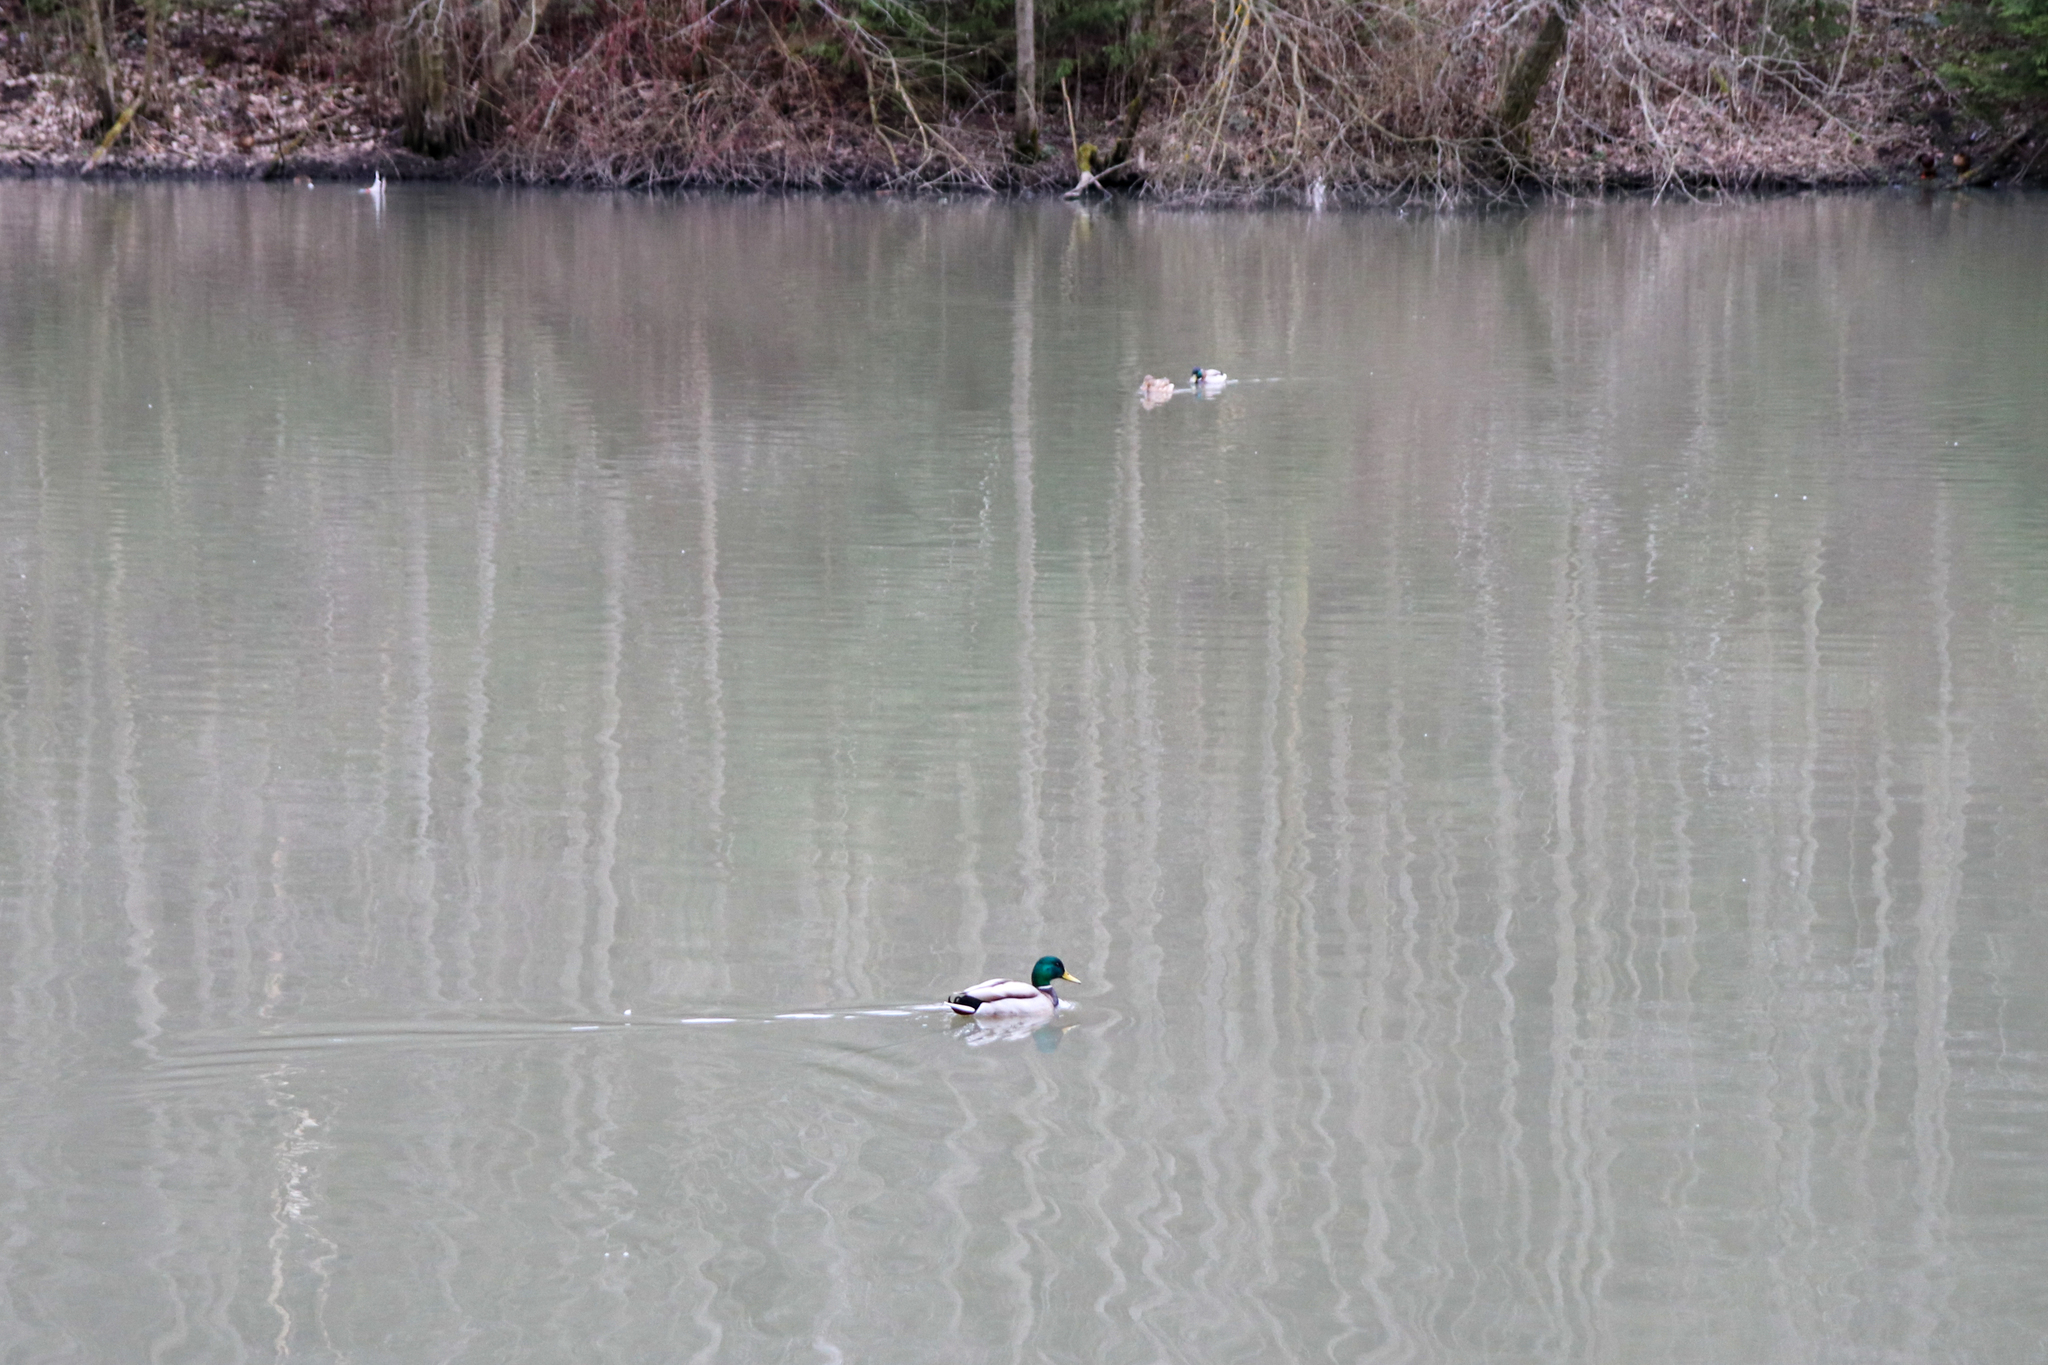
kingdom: Animalia
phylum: Chordata
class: Aves
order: Anseriformes
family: Anatidae
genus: Anas
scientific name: Anas platyrhynchos
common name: Mallard
